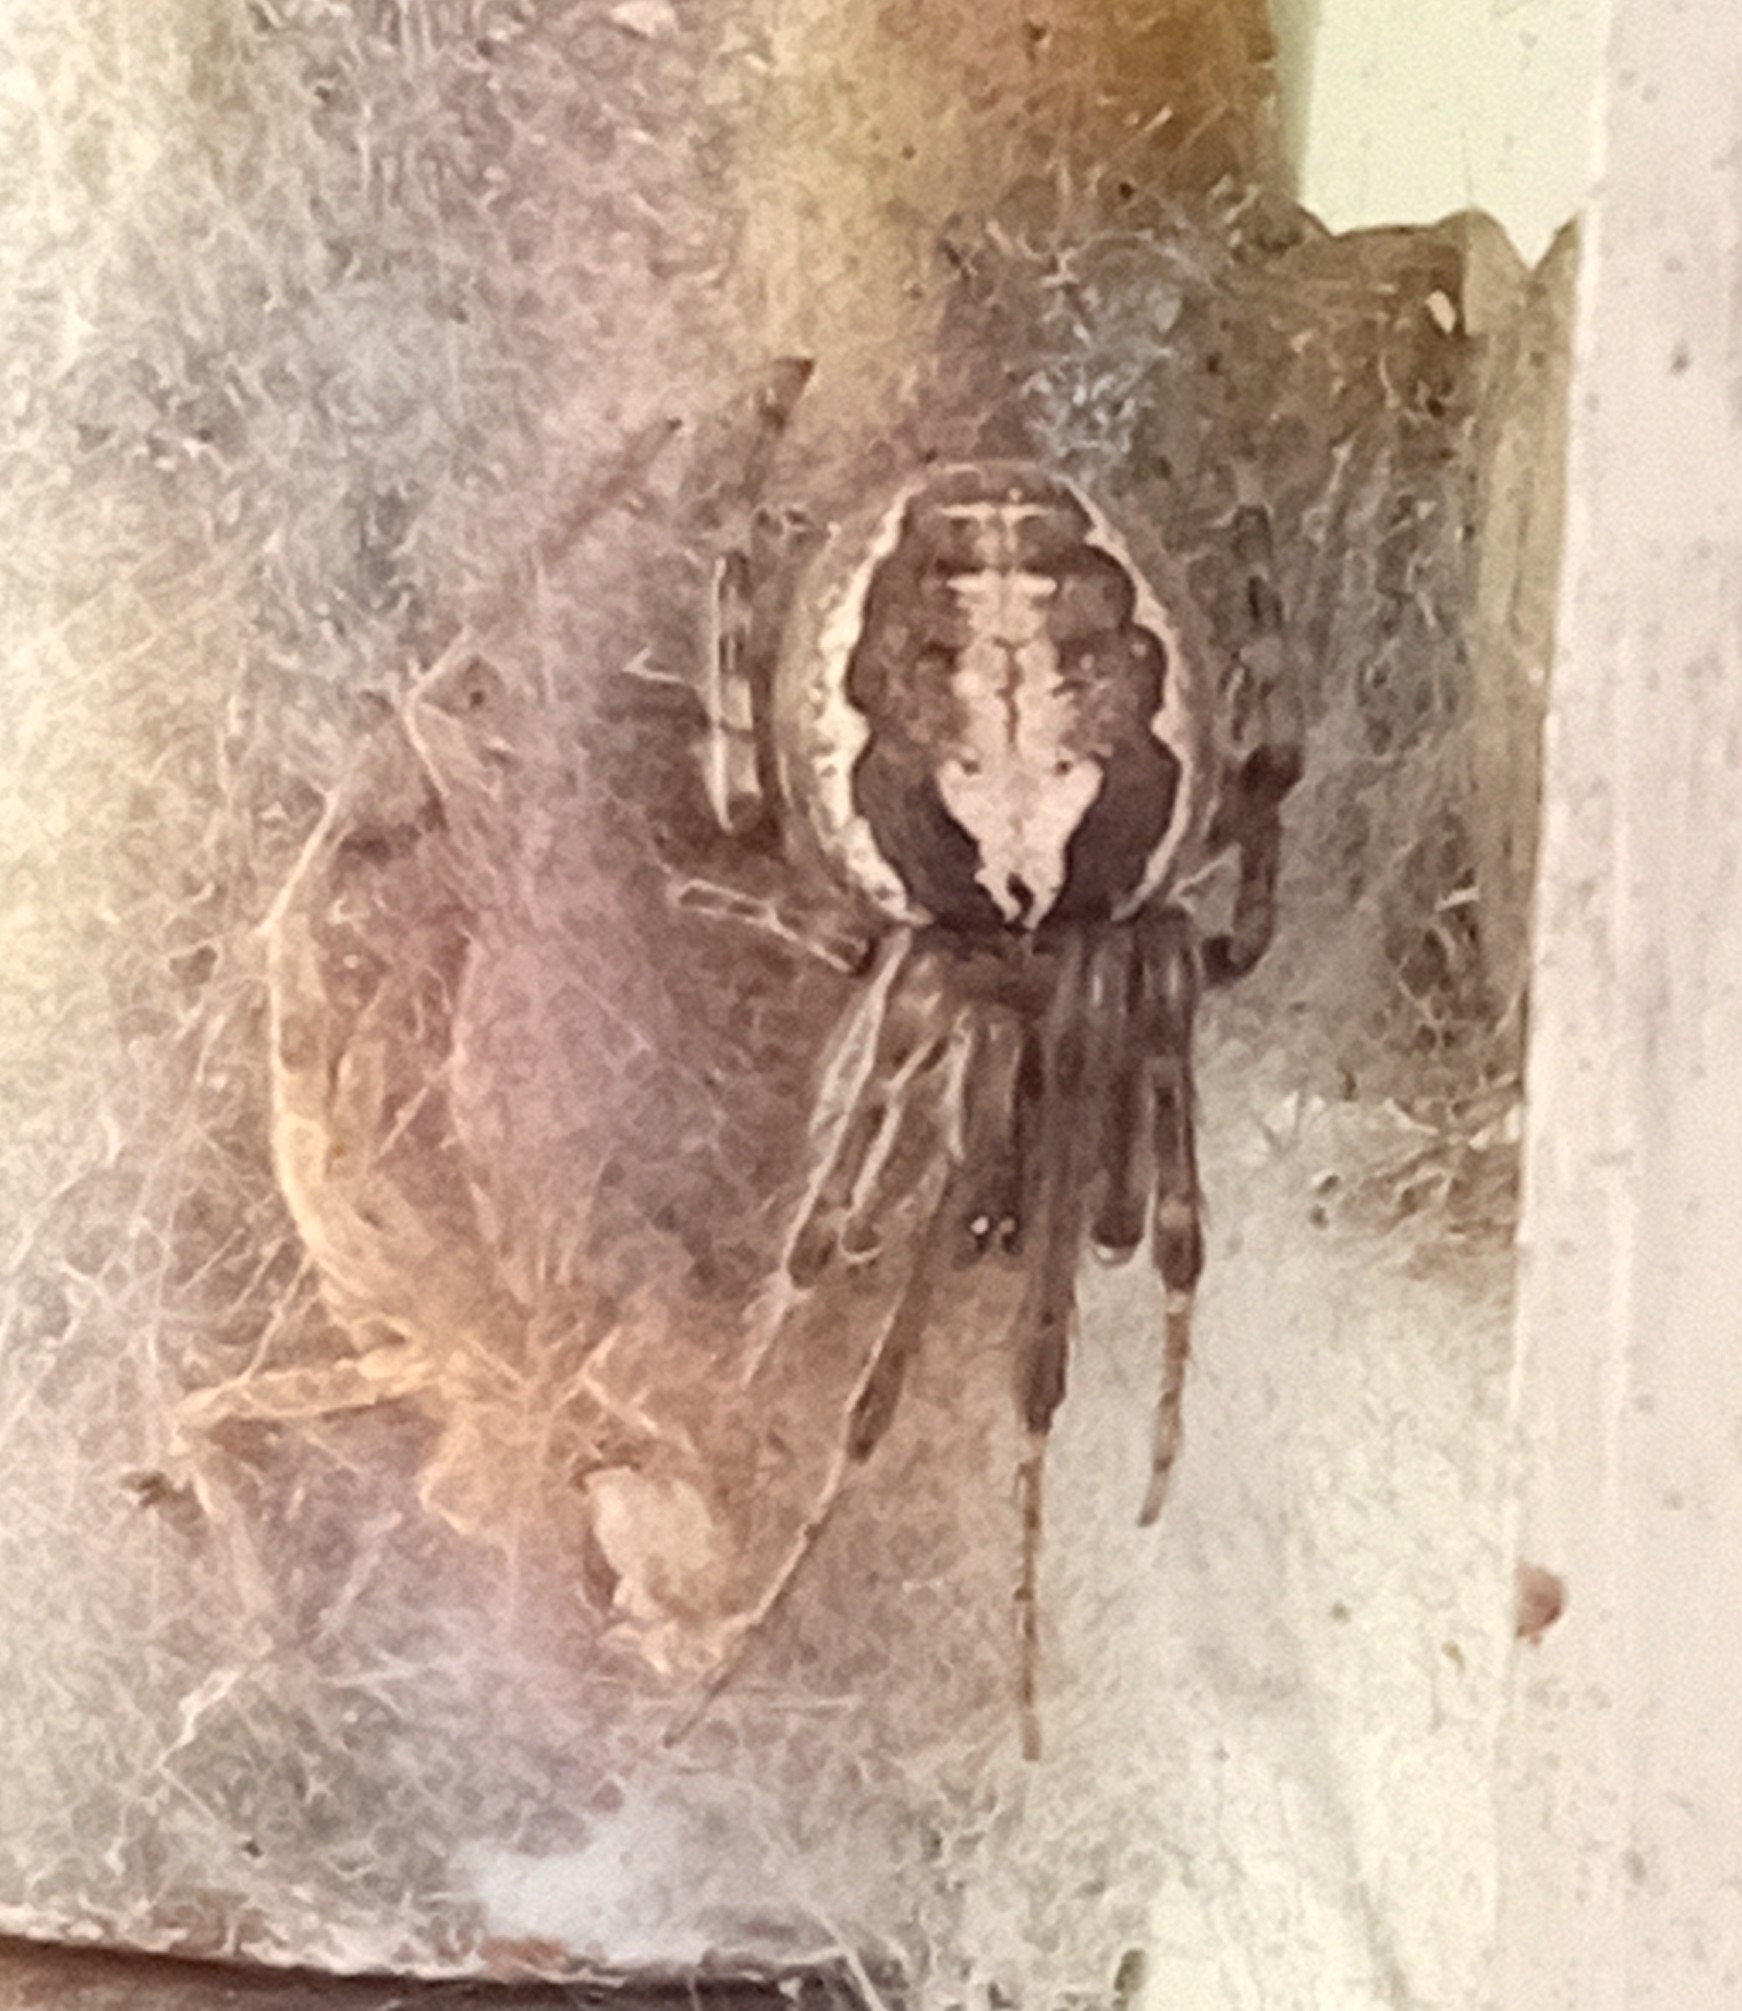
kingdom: Animalia
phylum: Arthropoda
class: Arachnida
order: Araneae
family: Araneidae
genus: Zygiella
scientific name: Zygiella x-notata
